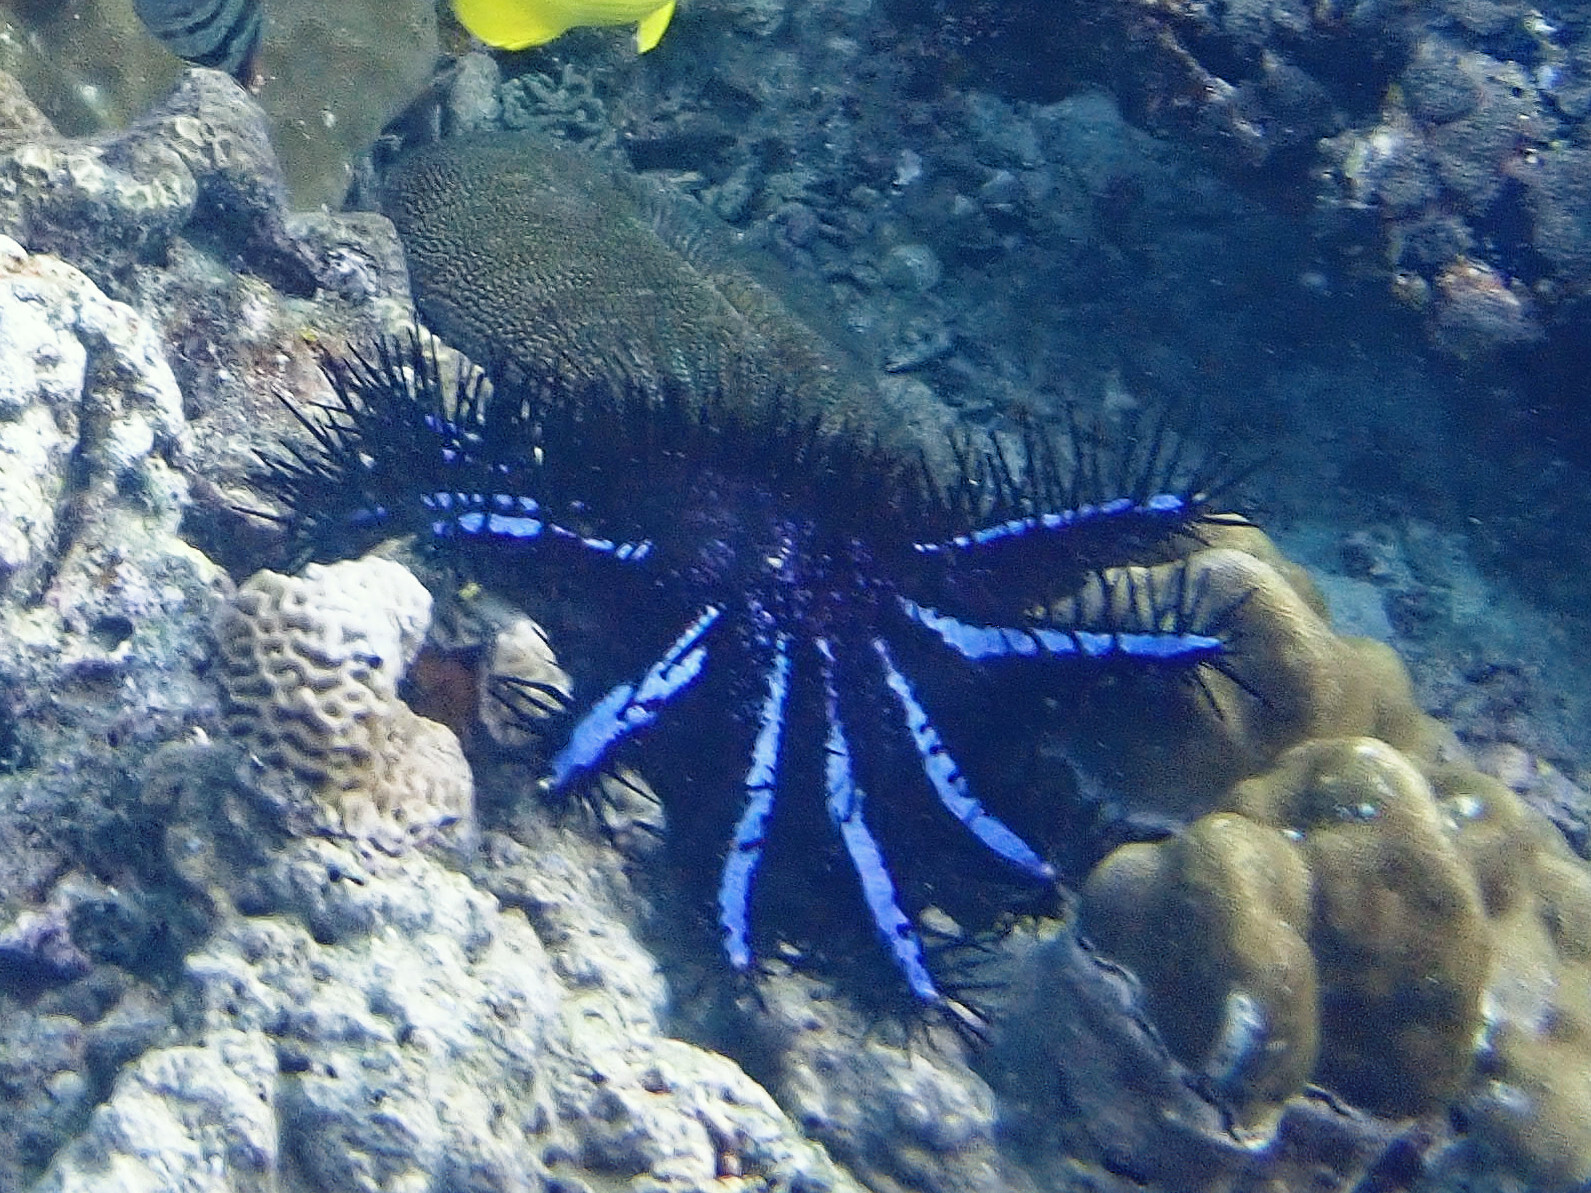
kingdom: Animalia
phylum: Echinodermata
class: Asteroidea
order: Valvatida
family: Acanthasteridae
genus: Acanthaster
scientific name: Acanthaster planci
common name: Crown-of-thorns
